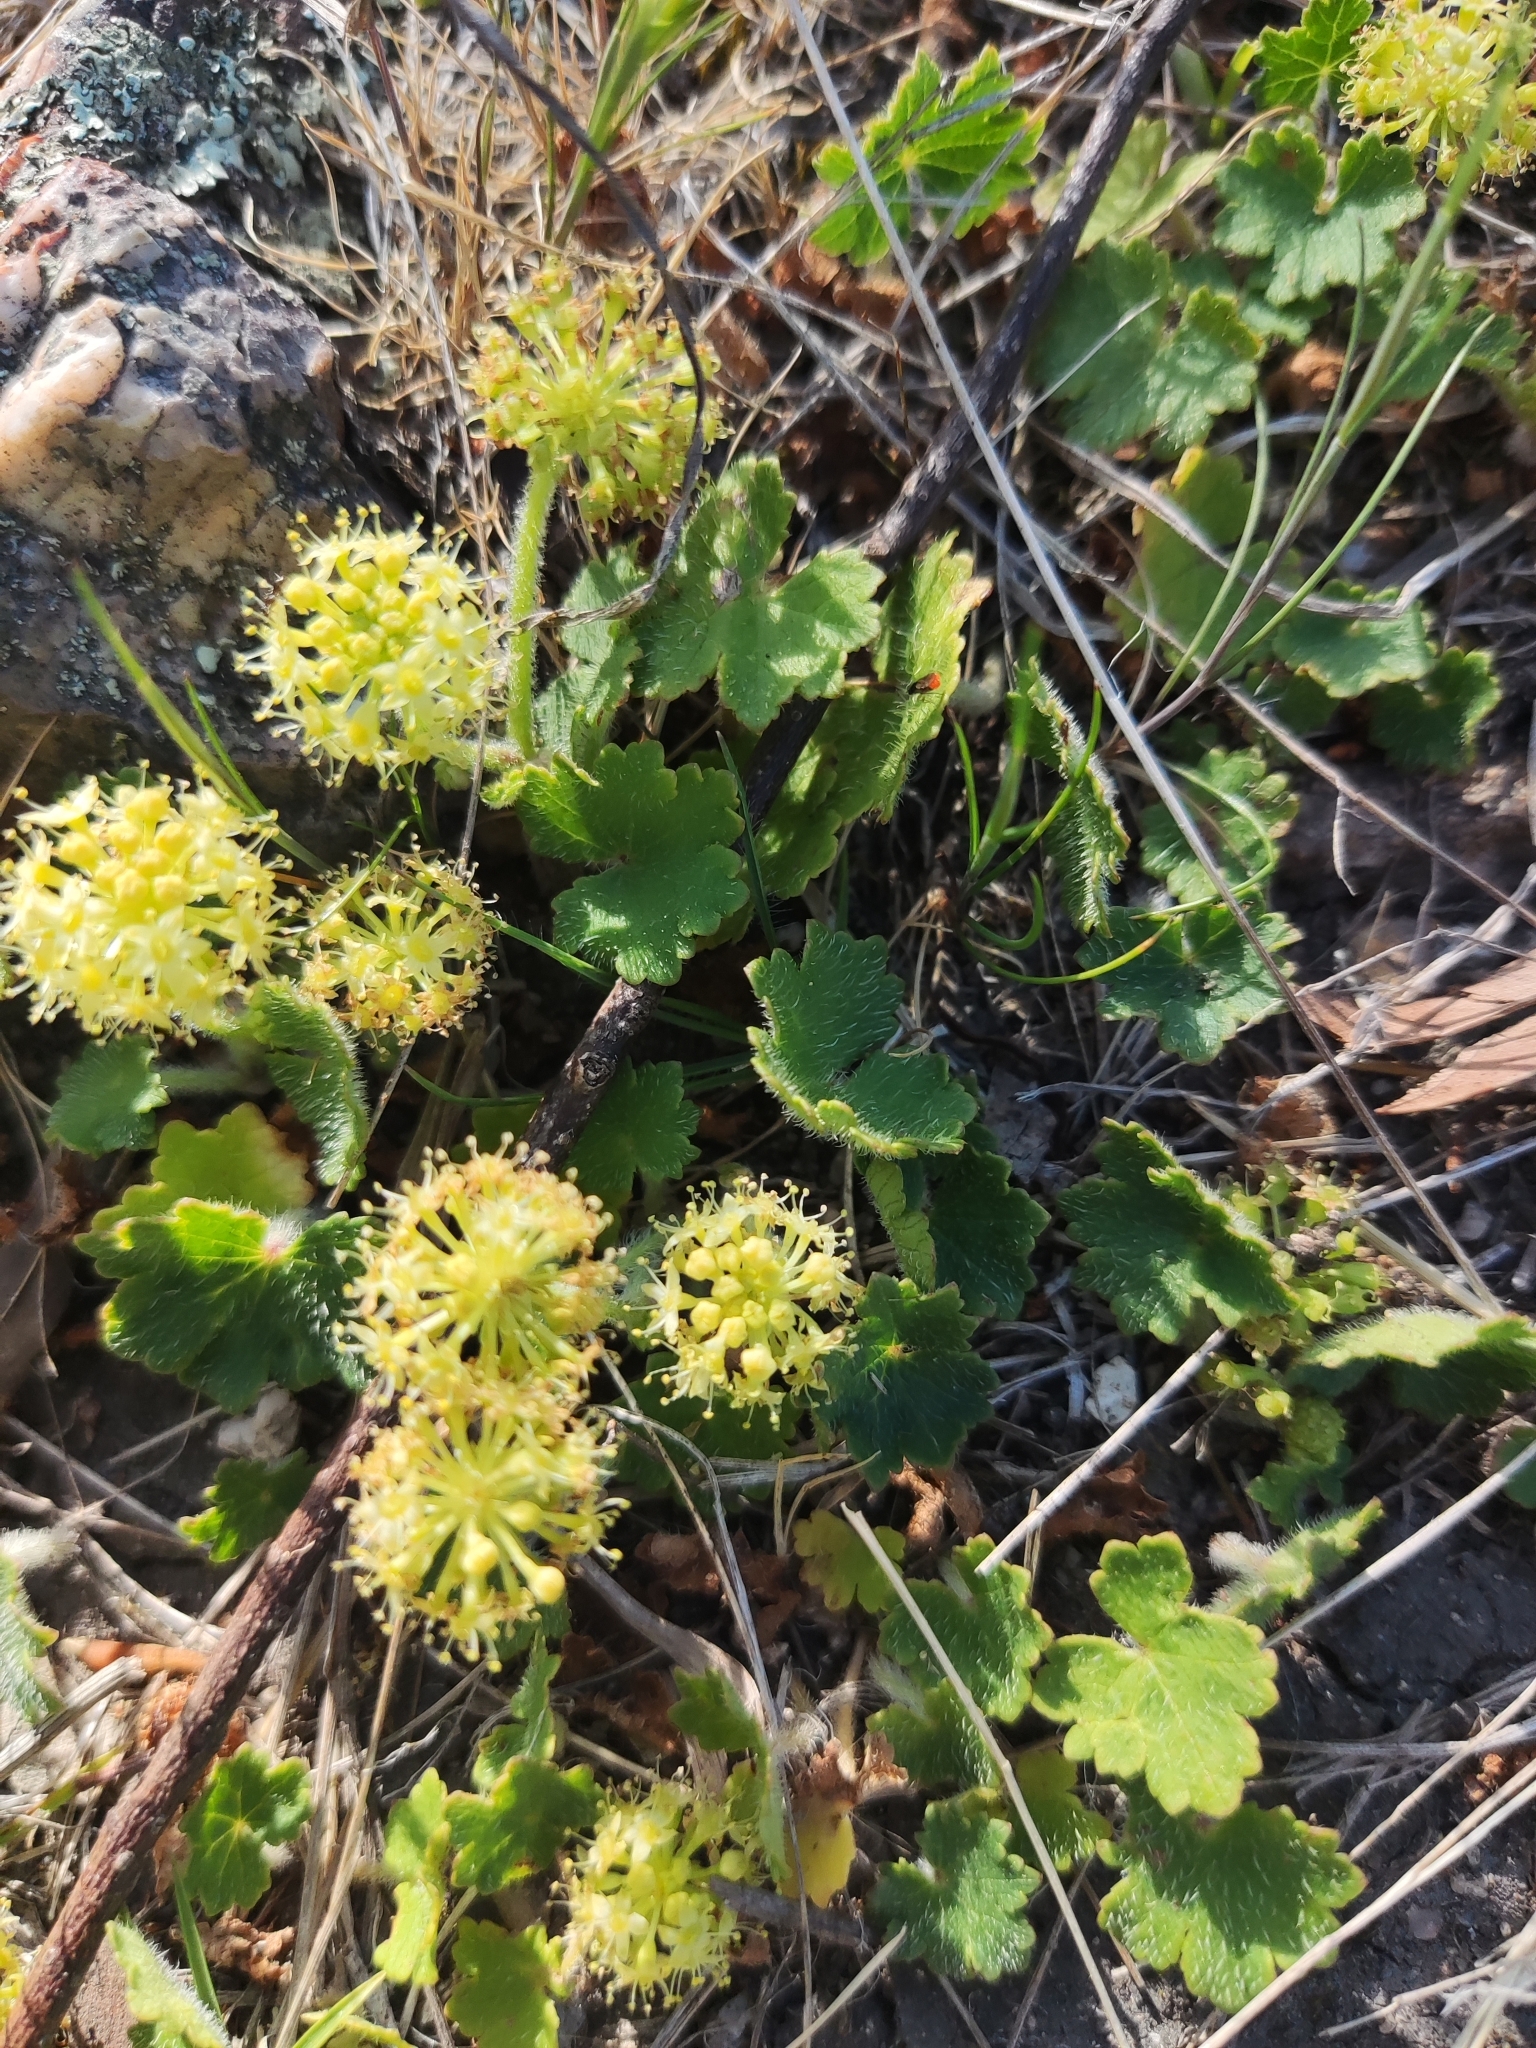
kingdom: Plantae
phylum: Tracheophyta
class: Magnoliopsida
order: Apiales
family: Araliaceae
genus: Hydrocotyle
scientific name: Hydrocotyle laxiflora
